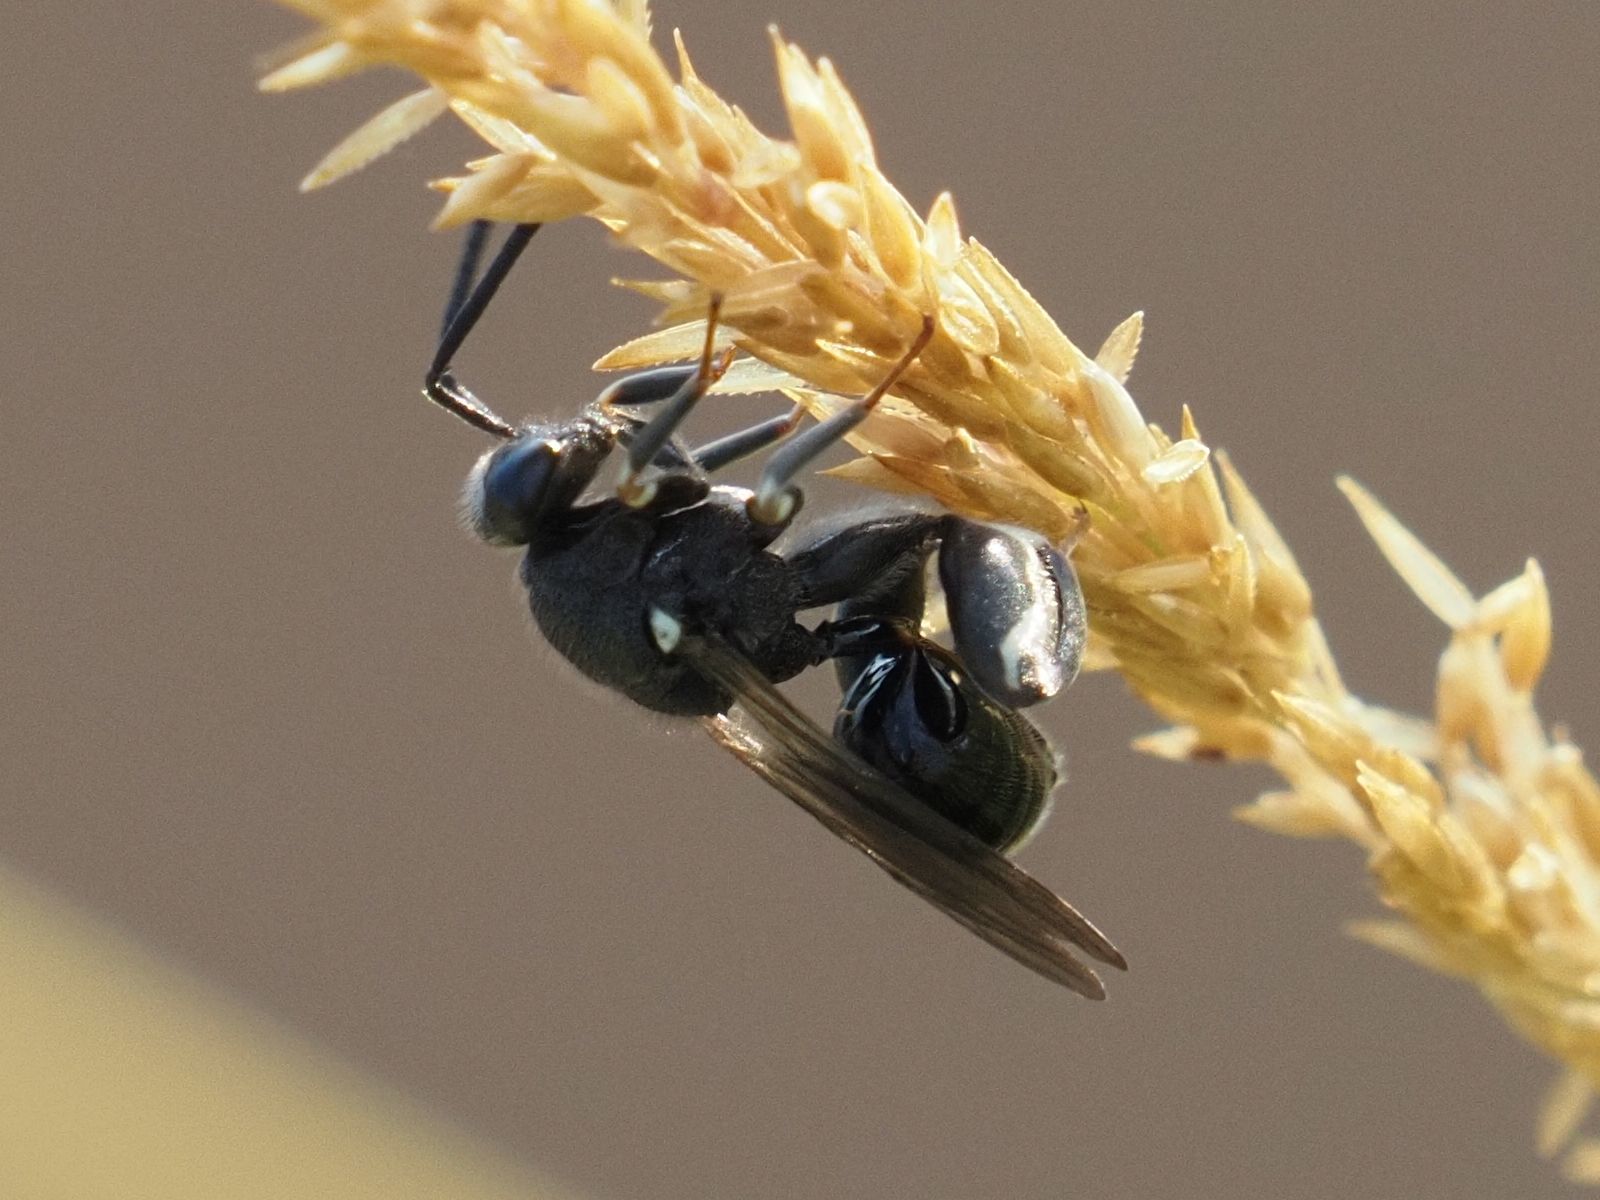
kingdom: Animalia
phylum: Arthropoda
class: Insecta
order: Hymenoptera
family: Chalcididae
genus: Chalcis
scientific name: Chalcis biguttata
